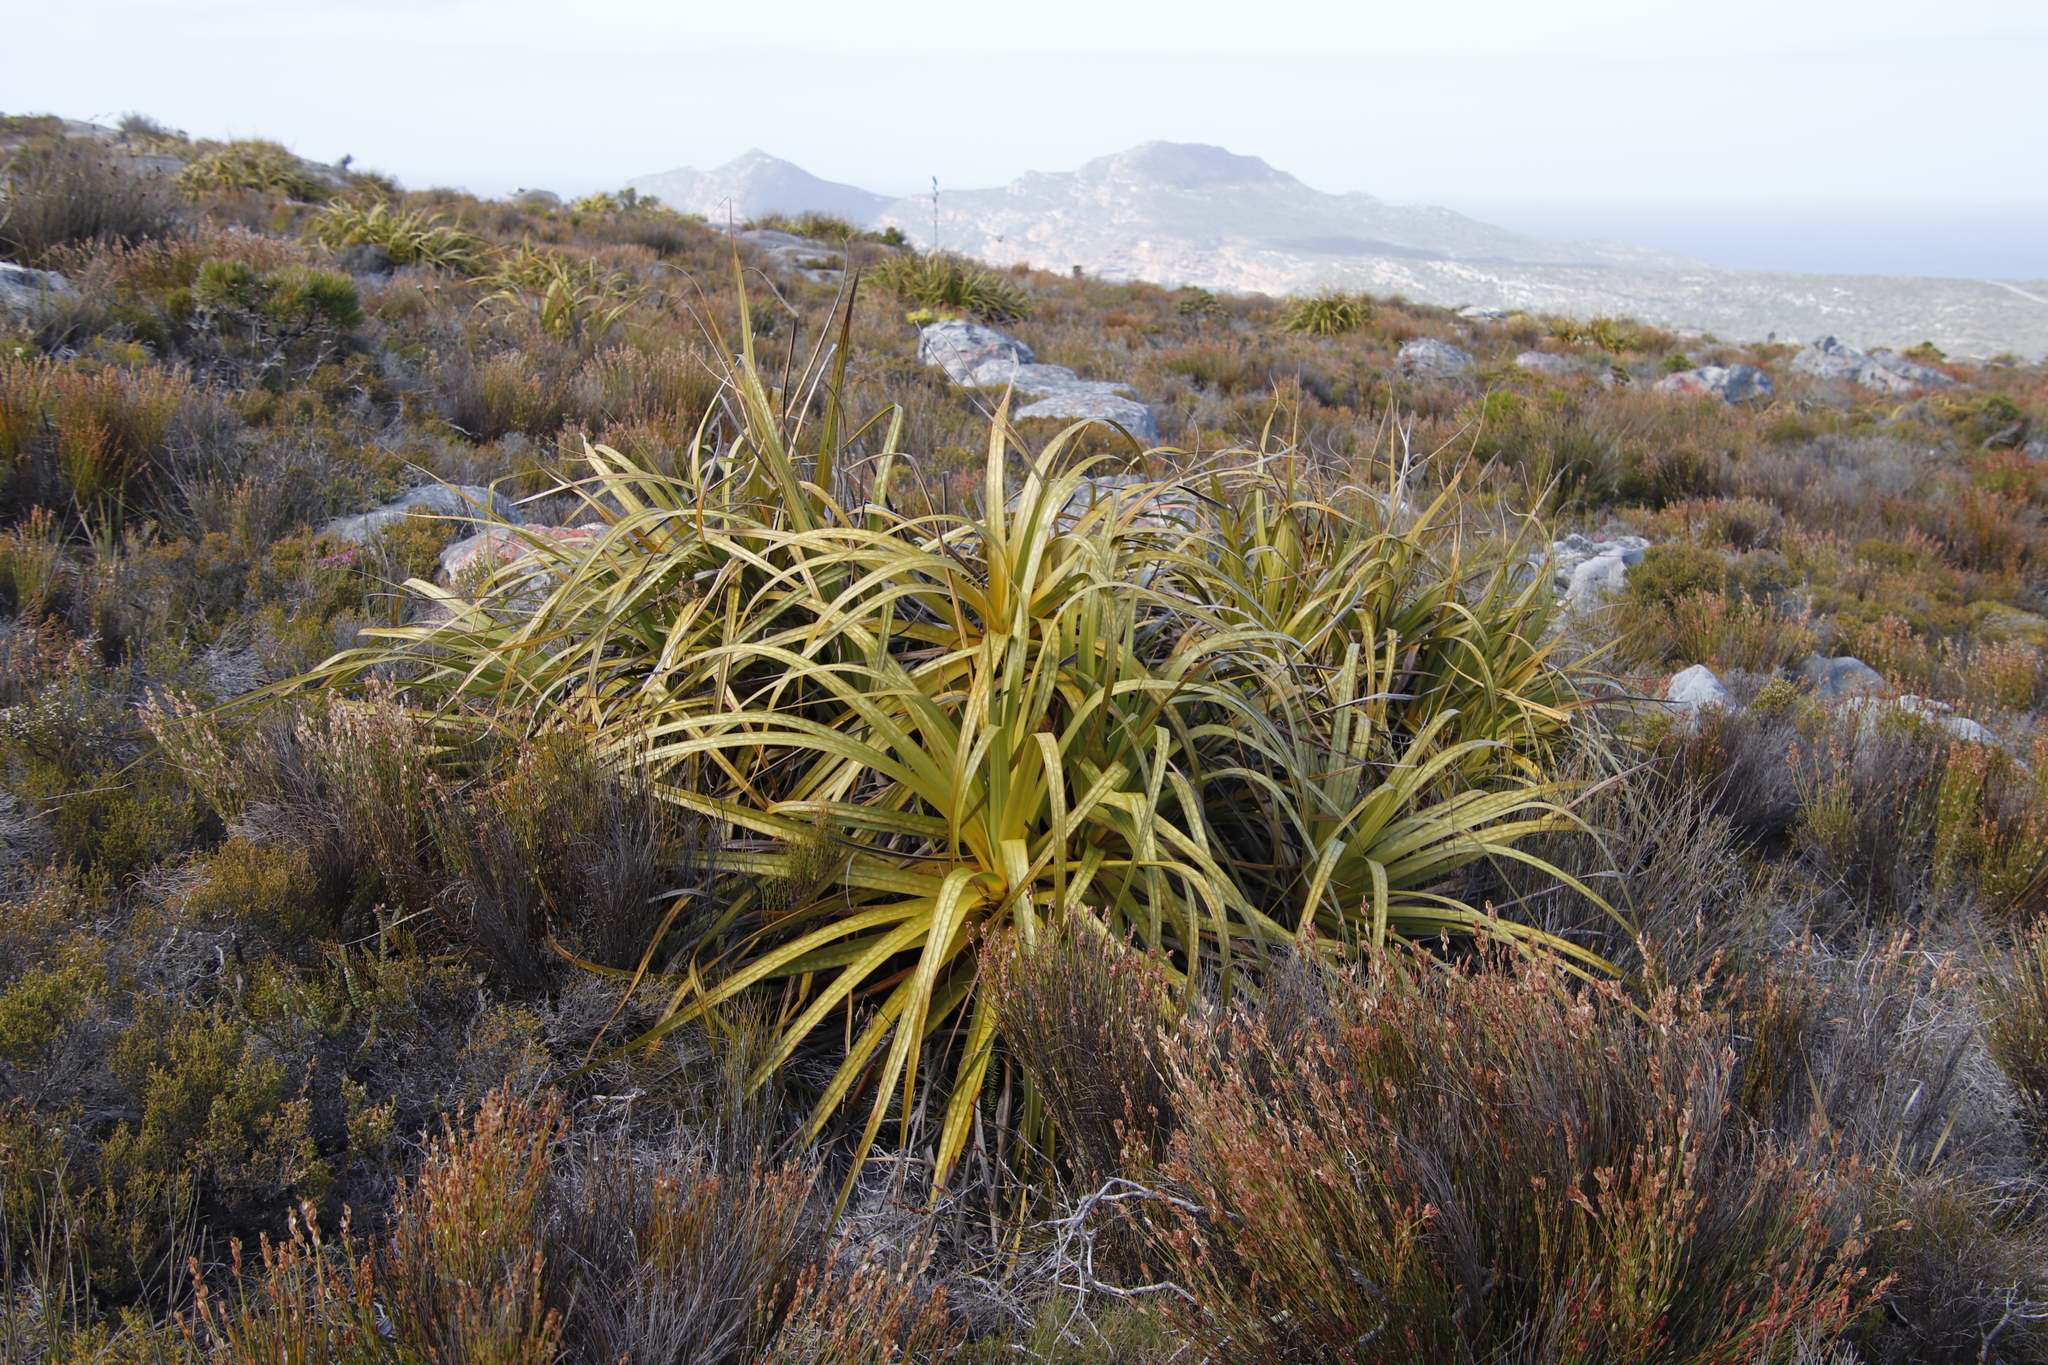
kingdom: Plantae
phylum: Tracheophyta
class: Liliopsida
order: Poales
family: Cyperaceae
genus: Tetraria
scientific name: Tetraria thermalis
